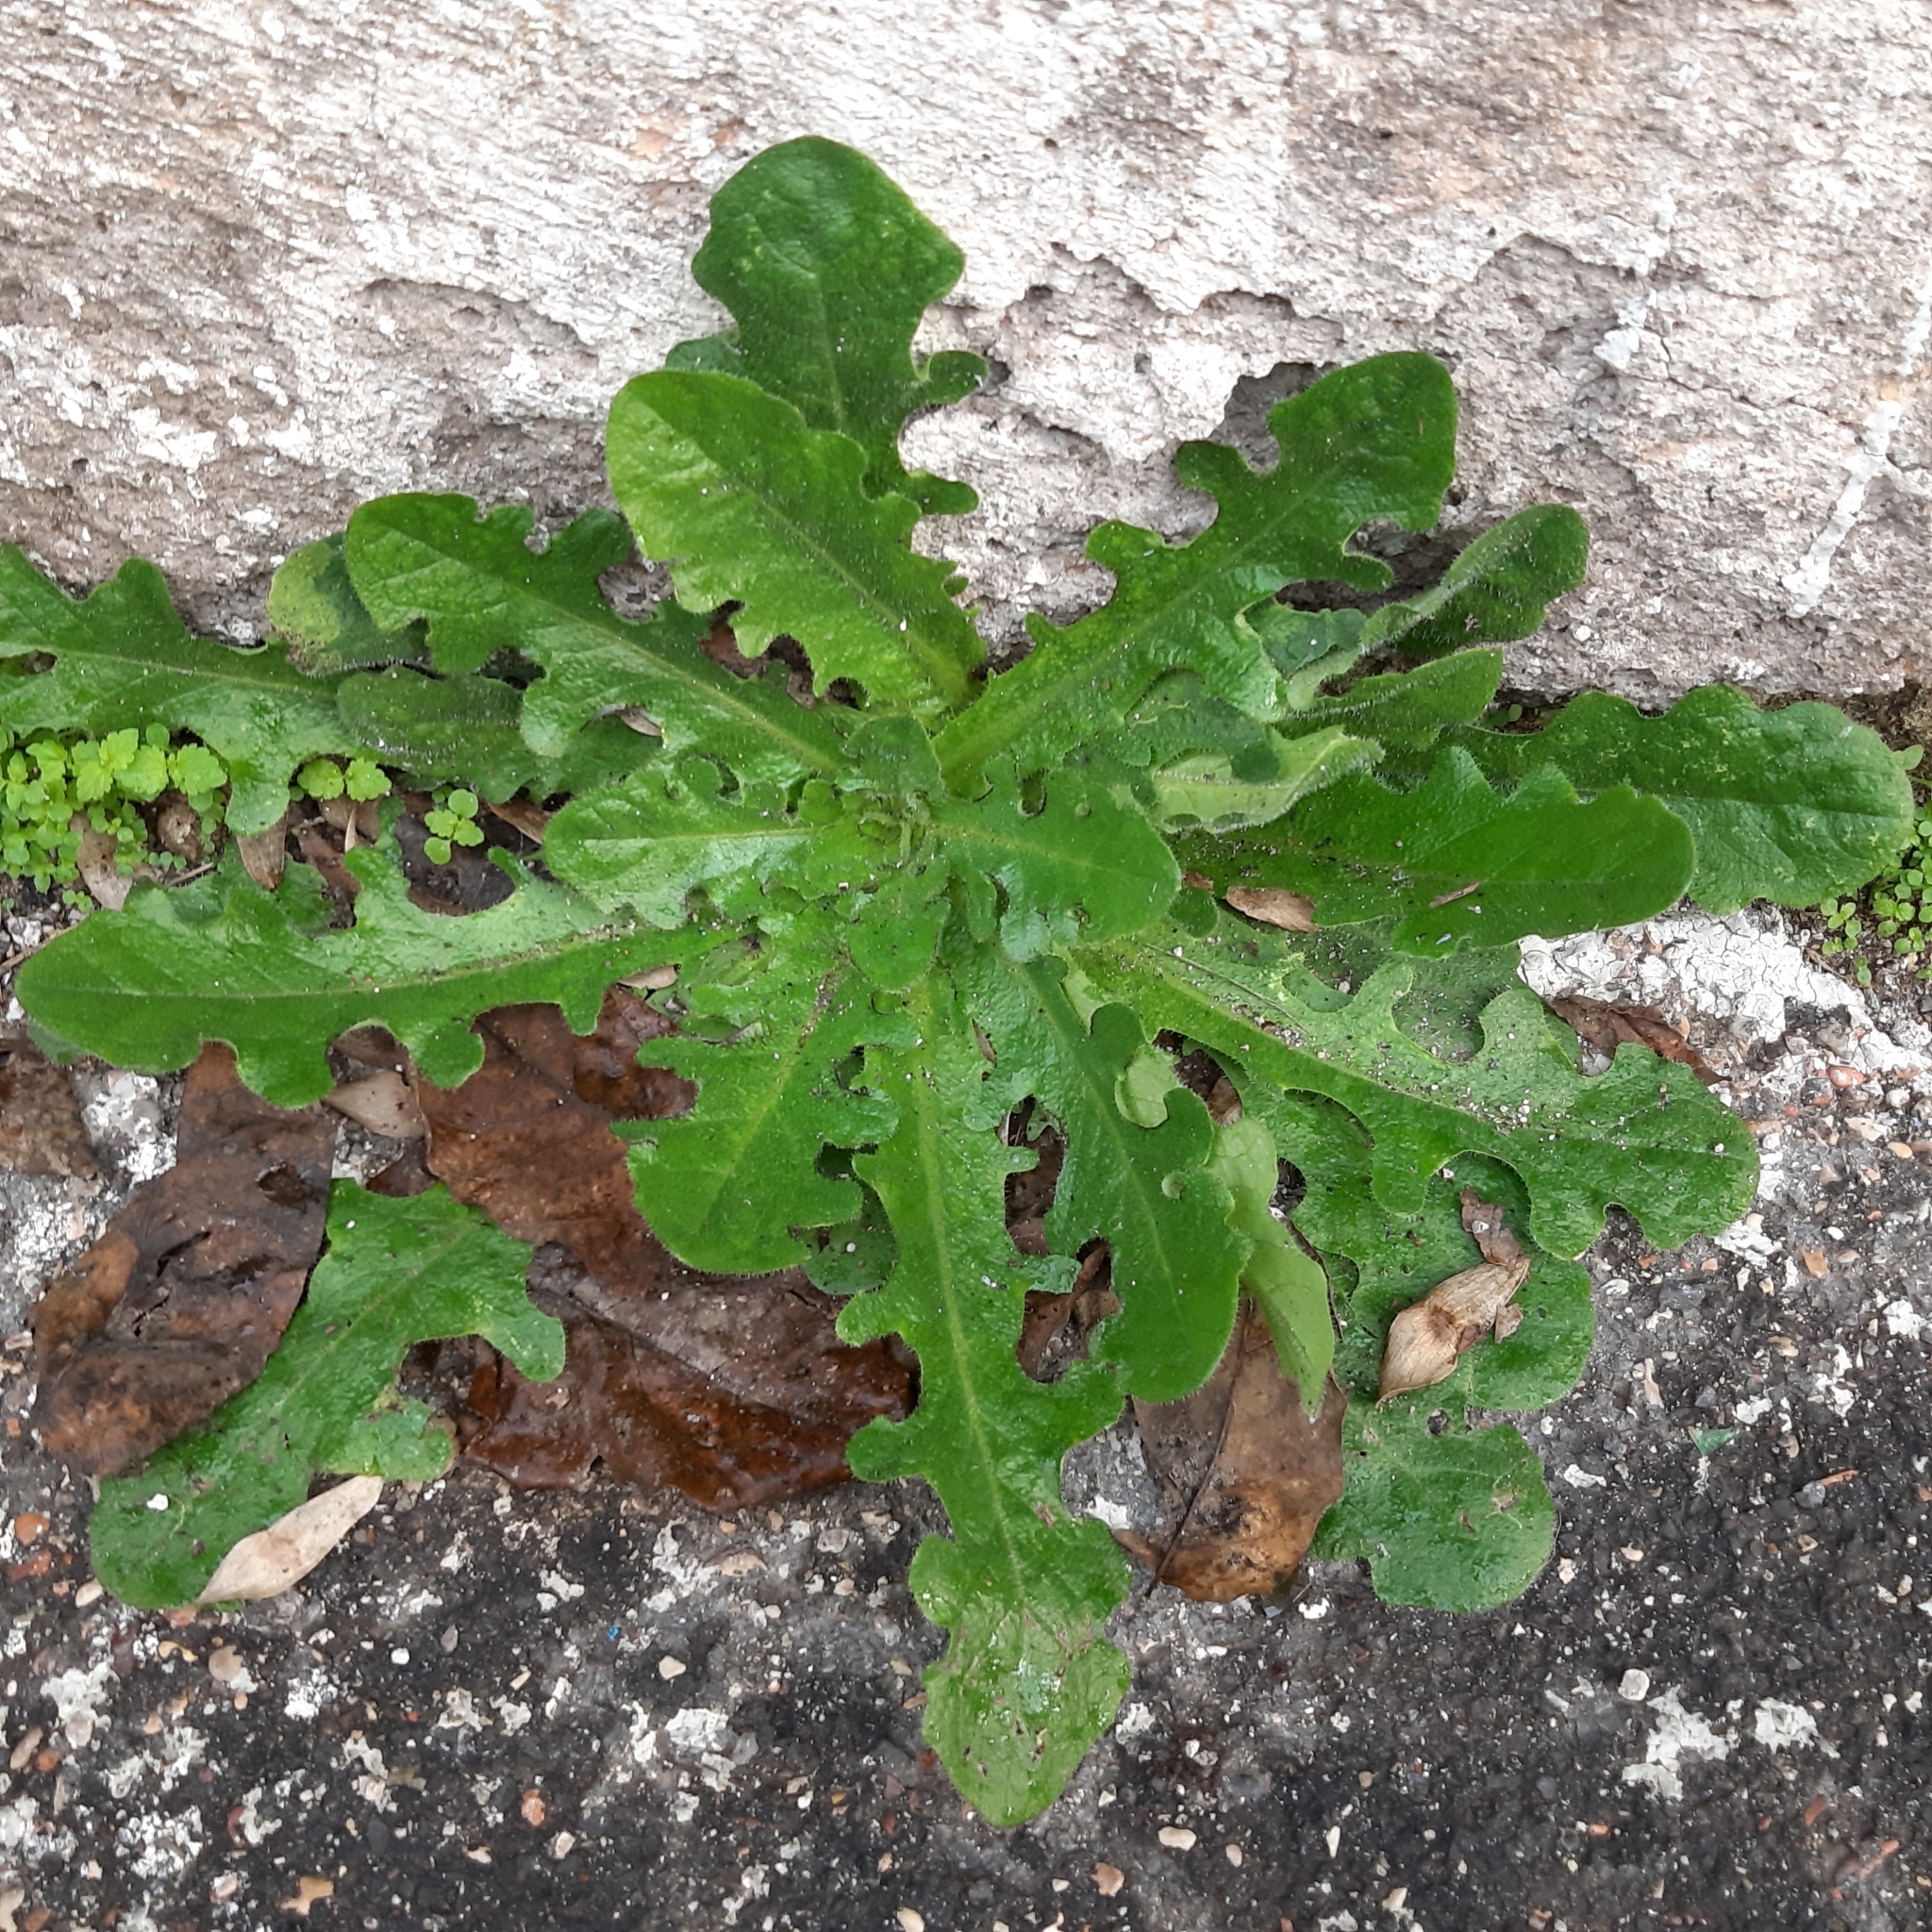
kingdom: Plantae
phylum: Tracheophyta
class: Magnoliopsida
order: Asterales
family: Asteraceae
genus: Hypochaeris
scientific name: Hypochaeris radicata
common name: Flatweed
